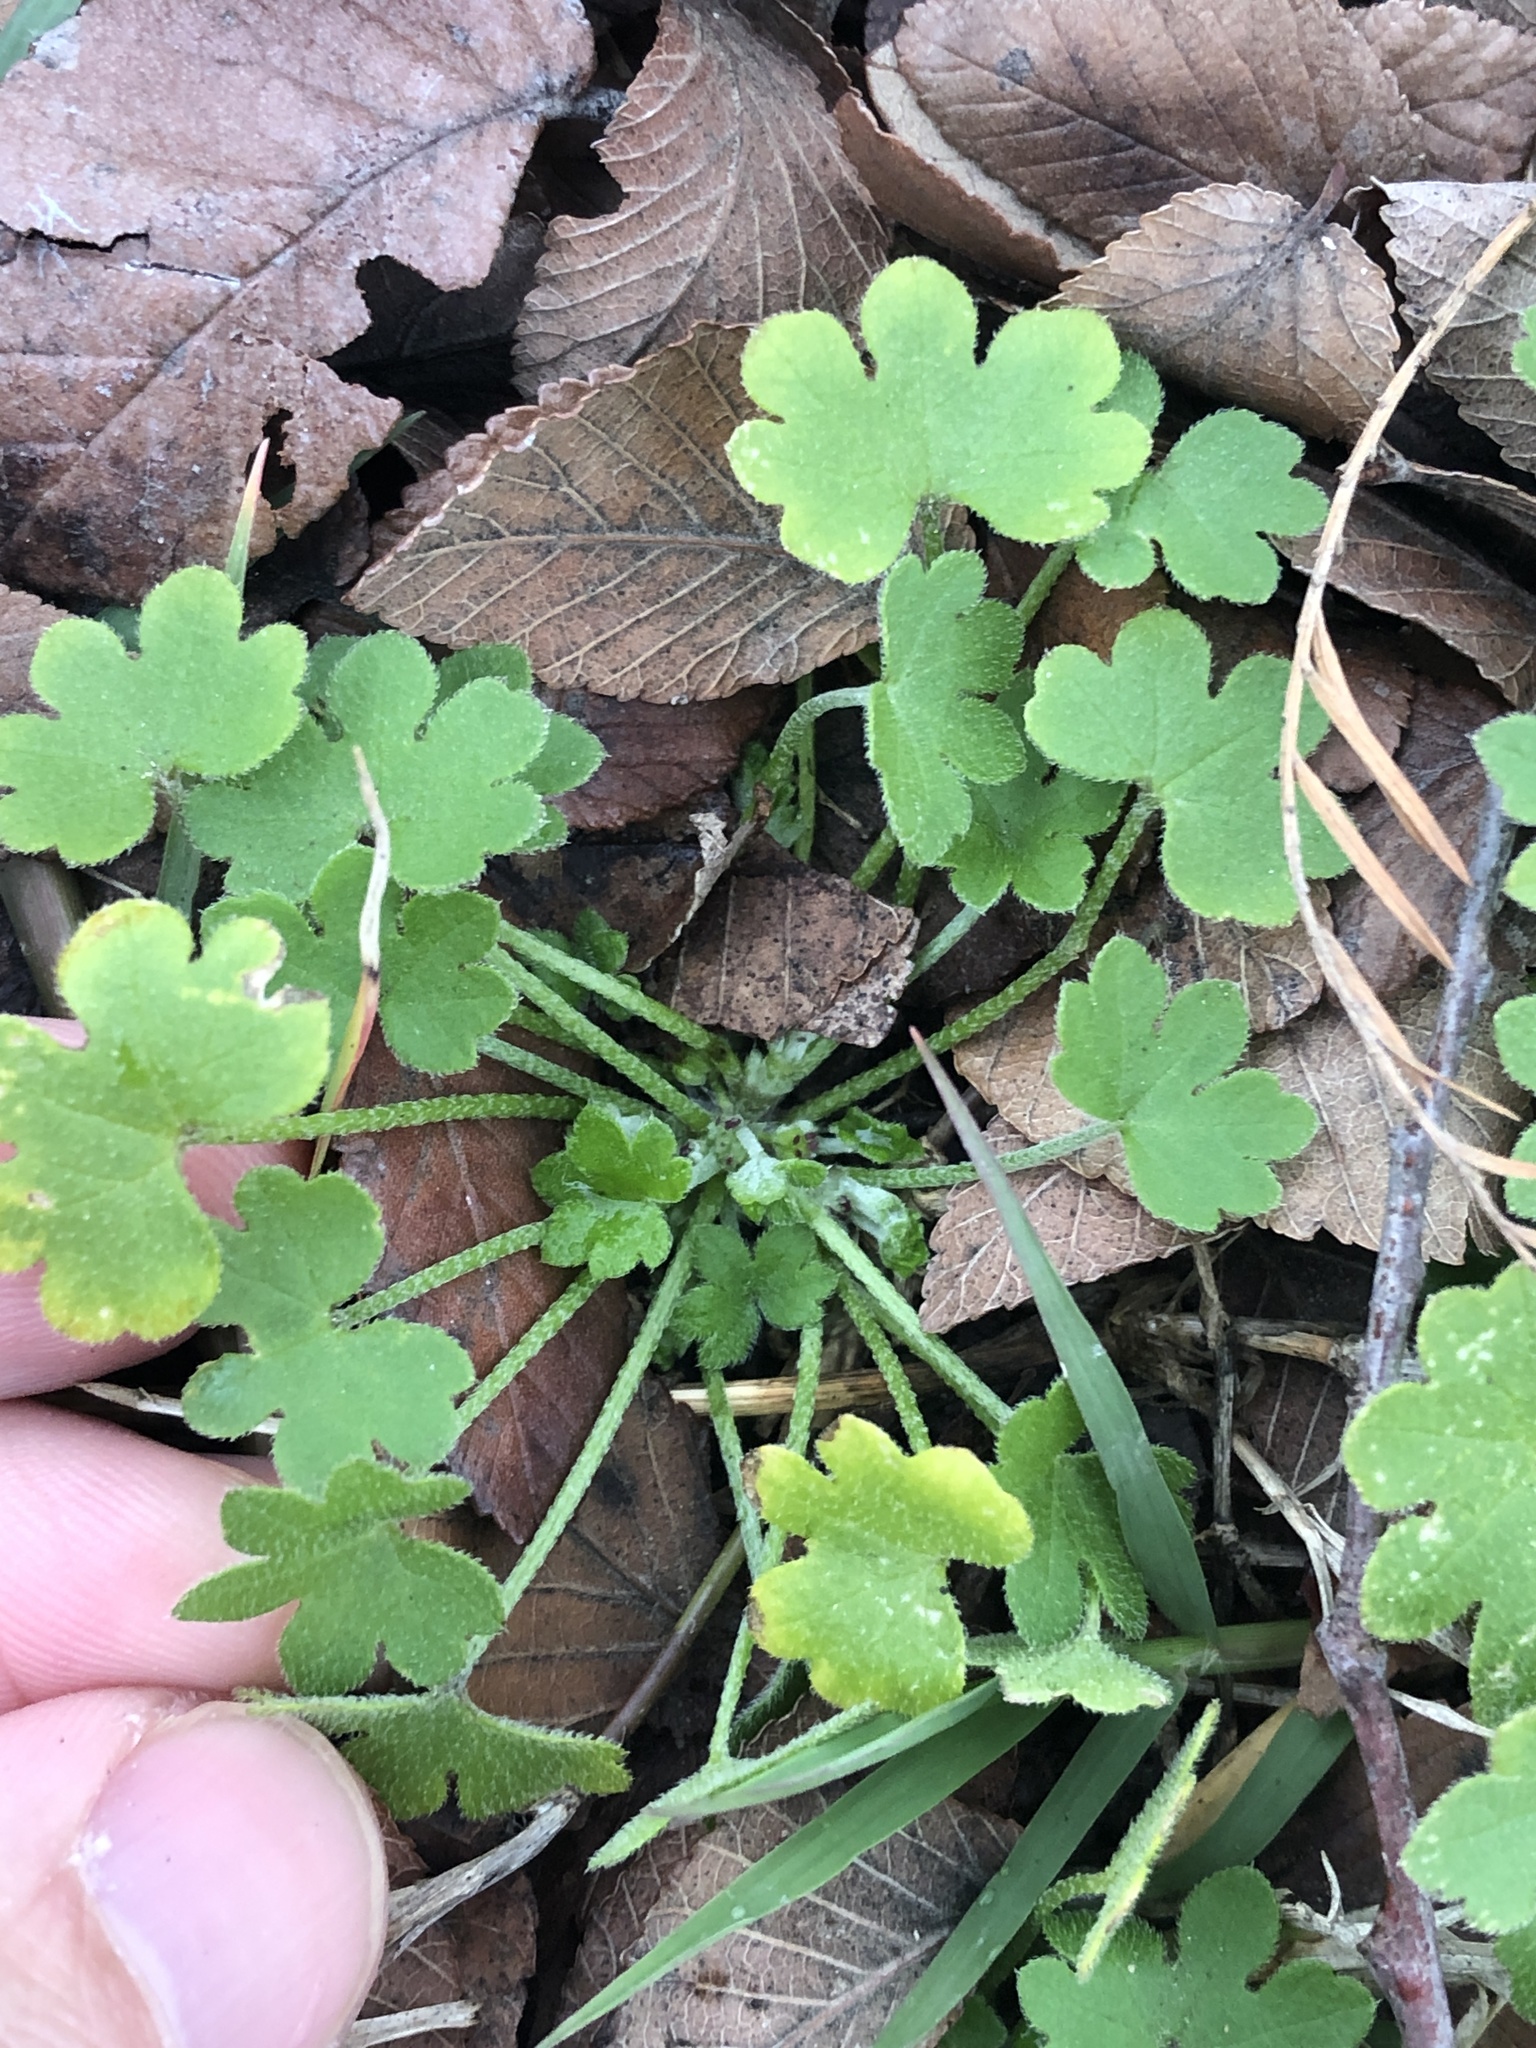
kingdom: Plantae
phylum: Tracheophyta
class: Magnoliopsida
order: Apiales
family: Apiaceae
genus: Bowlesia
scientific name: Bowlesia incana
